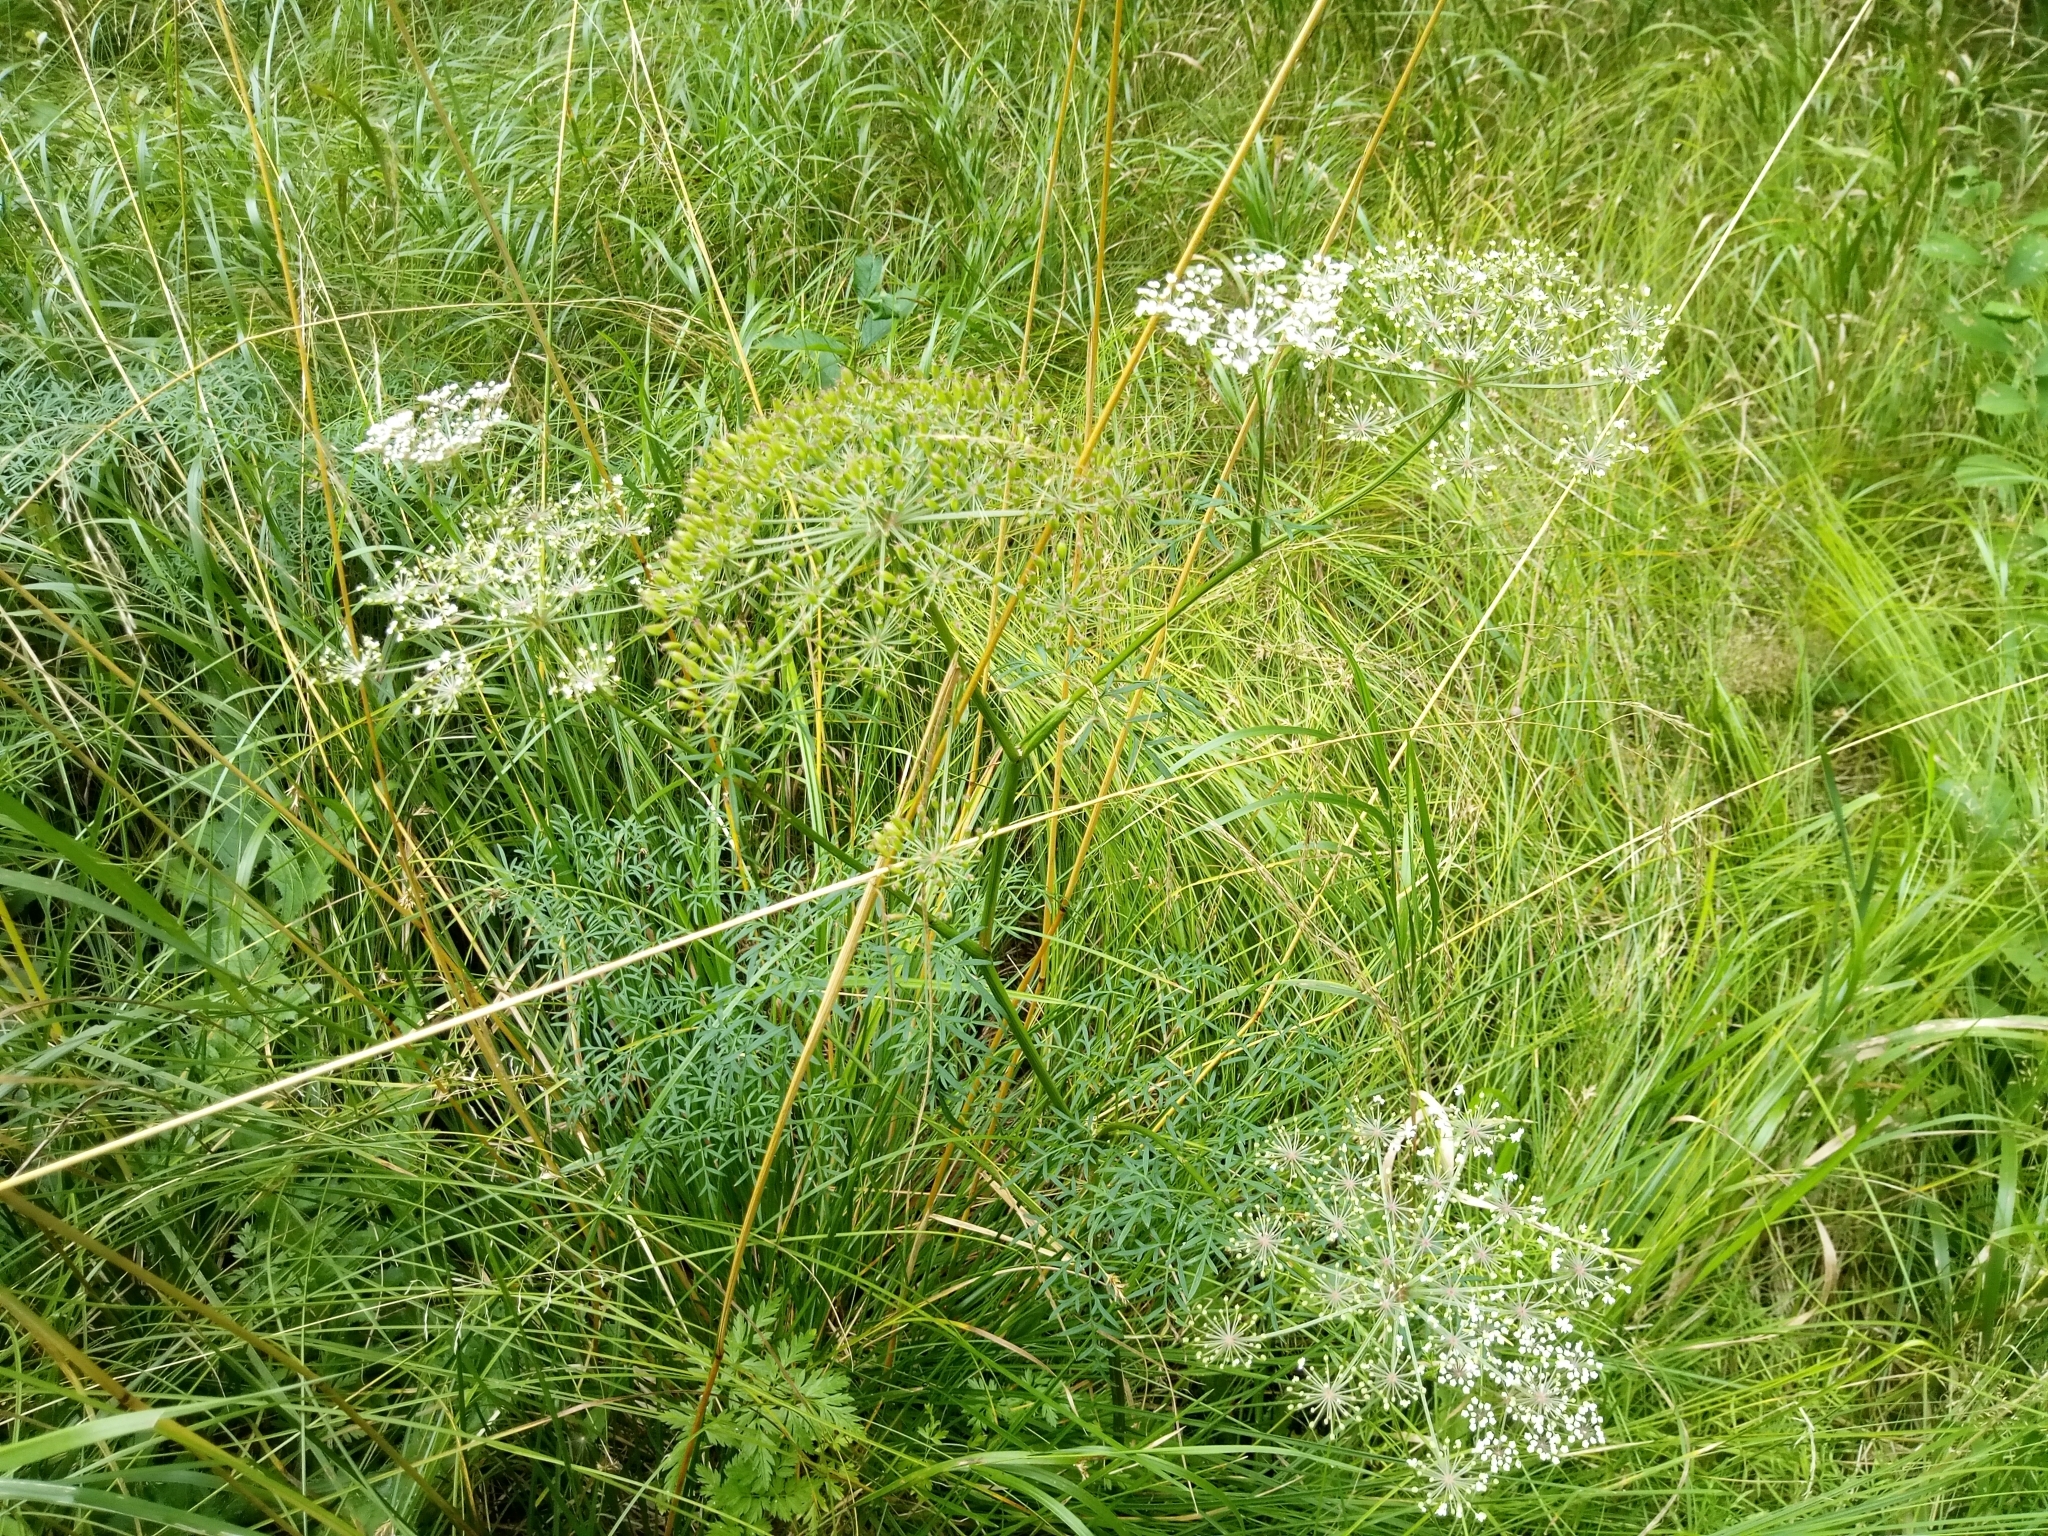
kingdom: Plantae
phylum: Tracheophyta
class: Magnoliopsida
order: Apiales
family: Apiaceae
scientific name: Apiaceae
